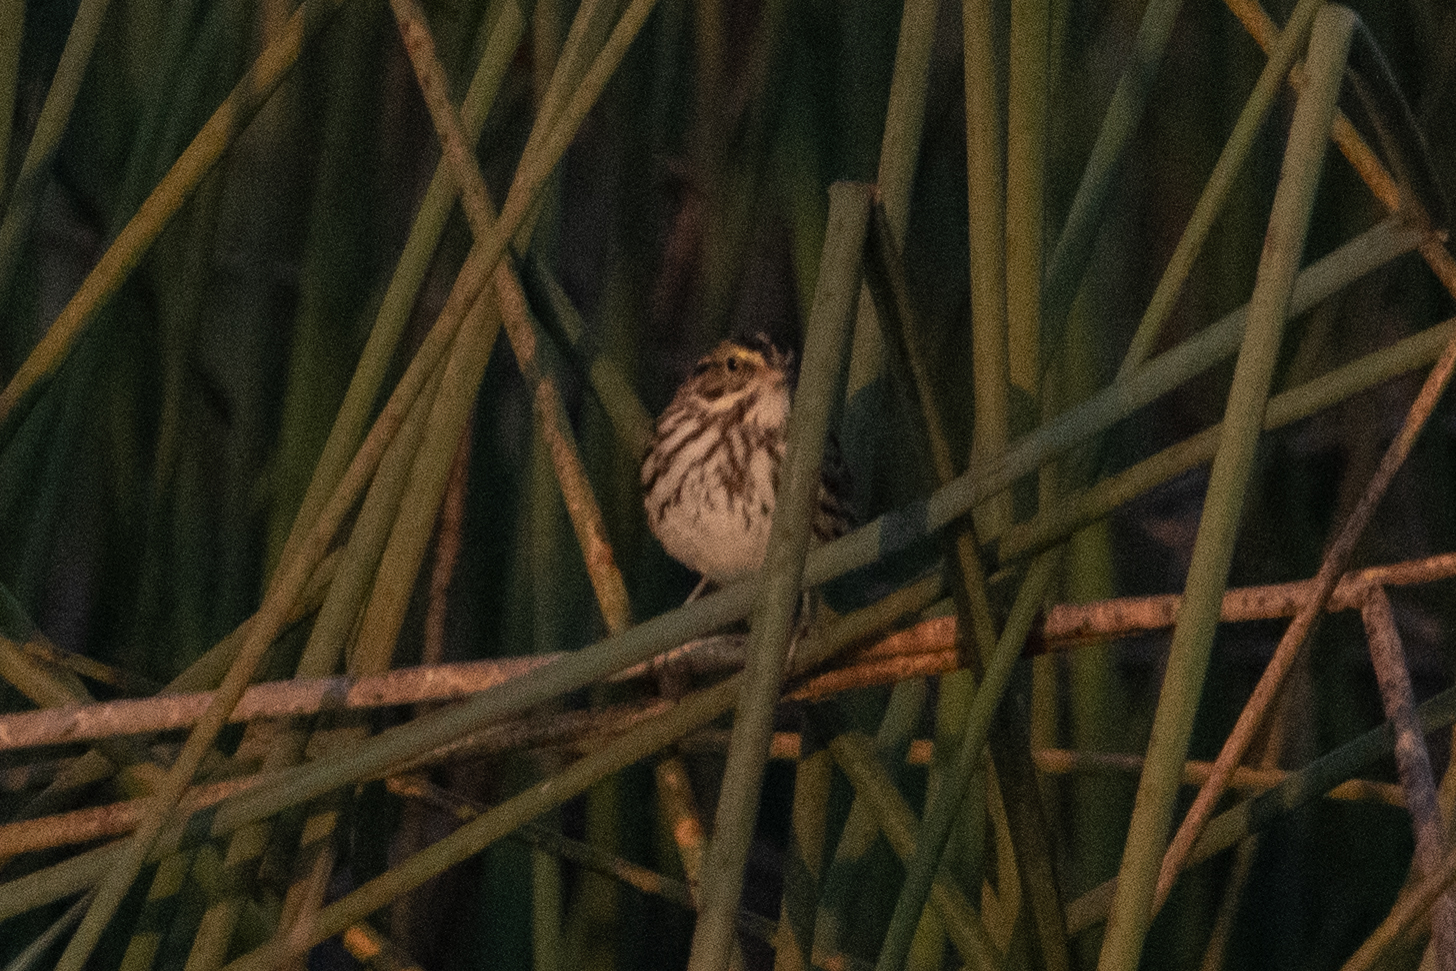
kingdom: Animalia
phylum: Chordata
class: Aves
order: Passeriformes
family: Passerellidae
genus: Passerculus
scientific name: Passerculus sandwichensis
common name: Savannah sparrow
